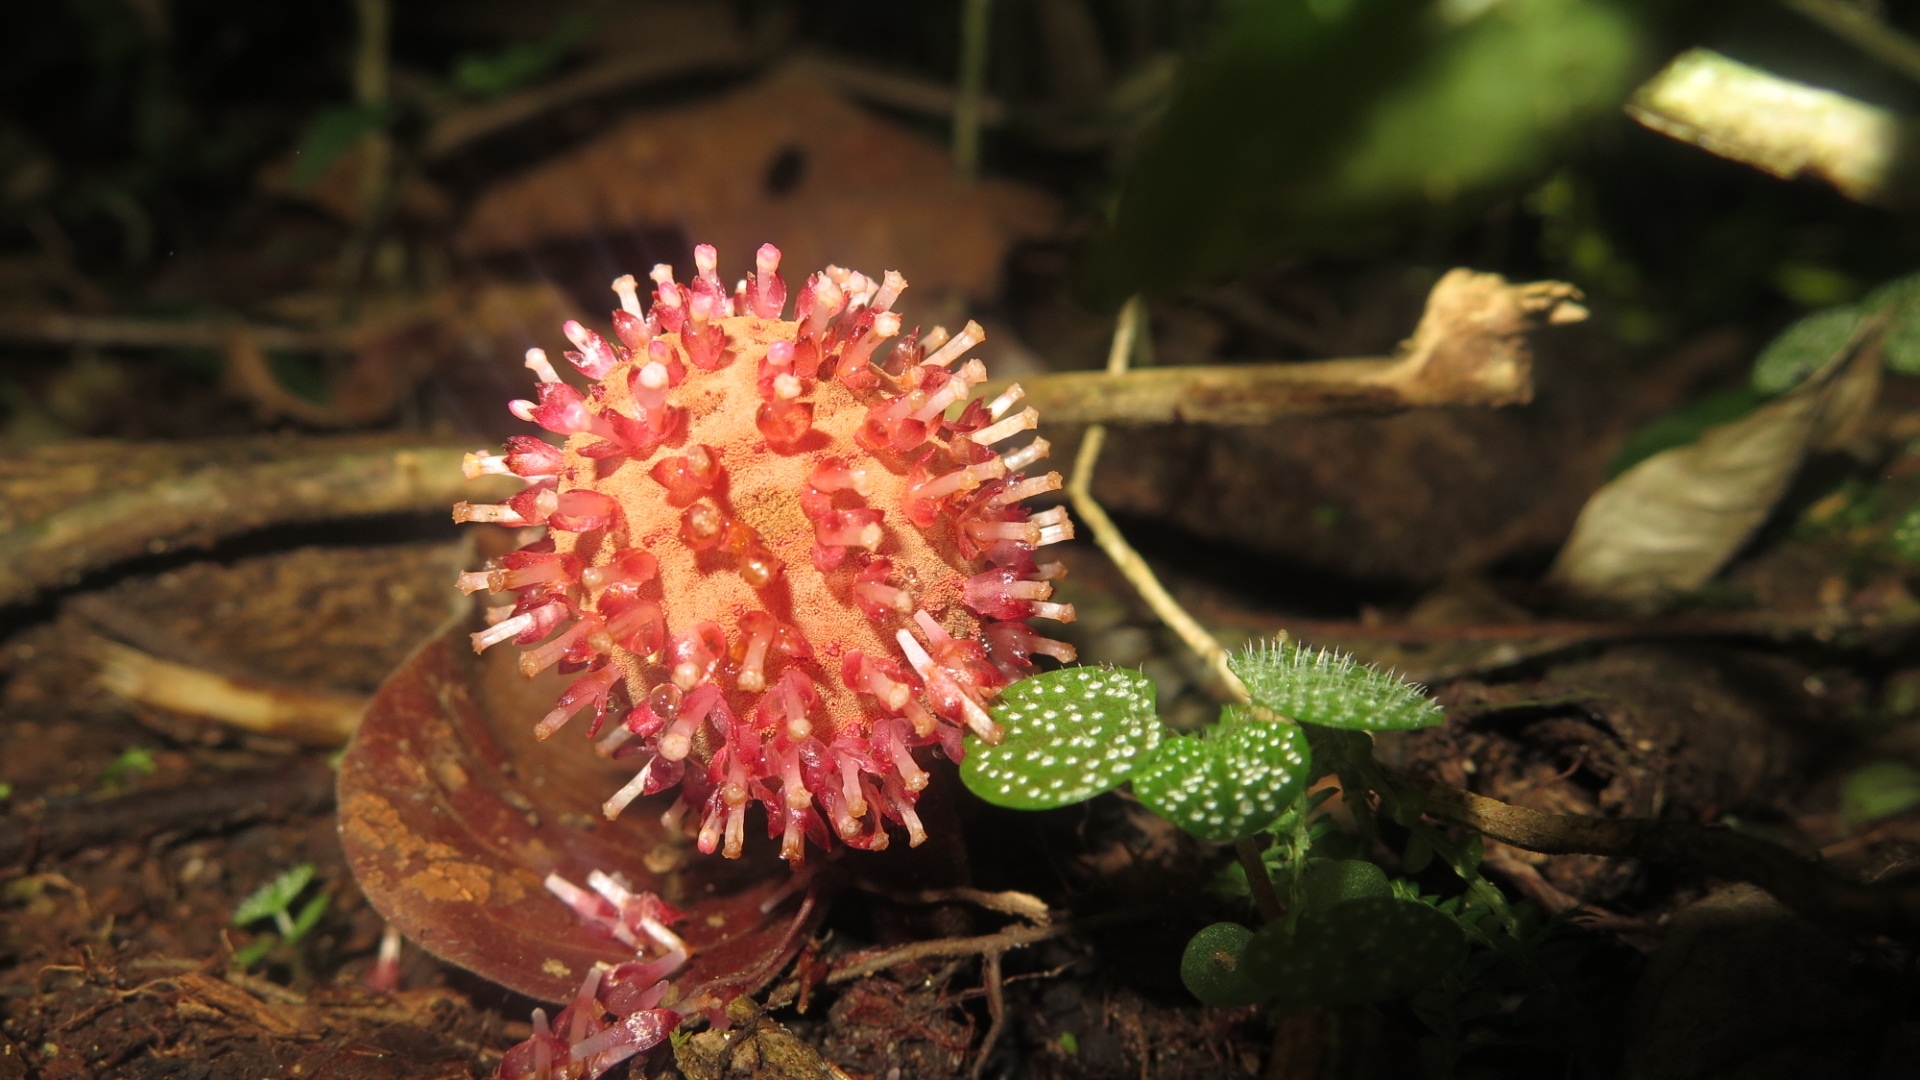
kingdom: Plantae
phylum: Tracheophyta
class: Magnoliopsida
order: Santalales
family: Balanophoraceae
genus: Helosis
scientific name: Helosis cayennensis
